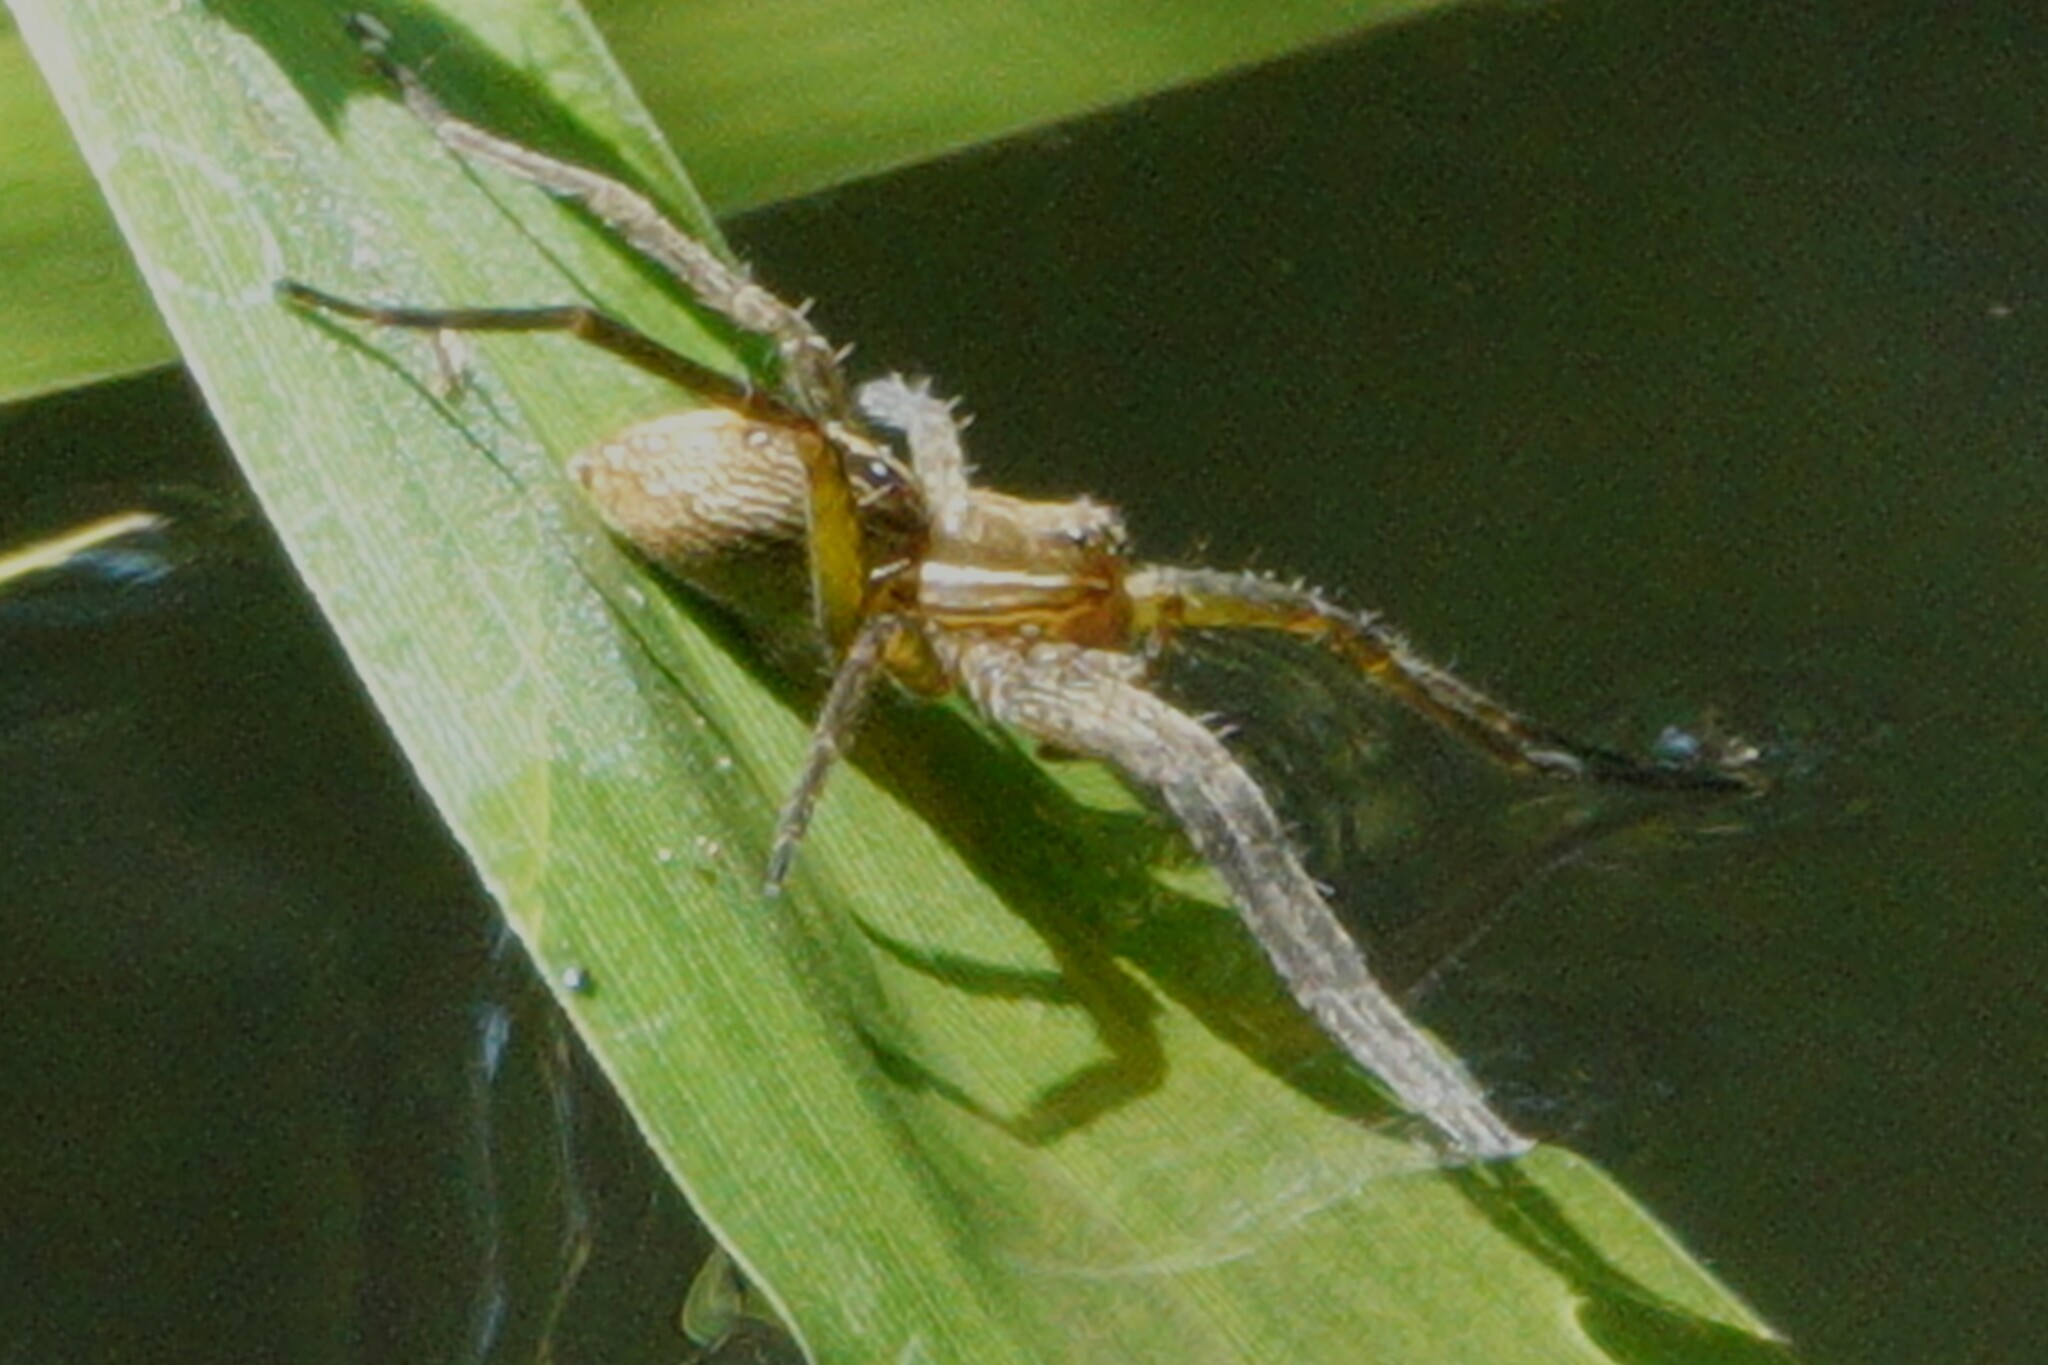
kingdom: Animalia
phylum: Arthropoda
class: Arachnida
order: Araneae
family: Pisauridae
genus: Dolomedes
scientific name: Dolomedes triton
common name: Six-spotted fishing spider
